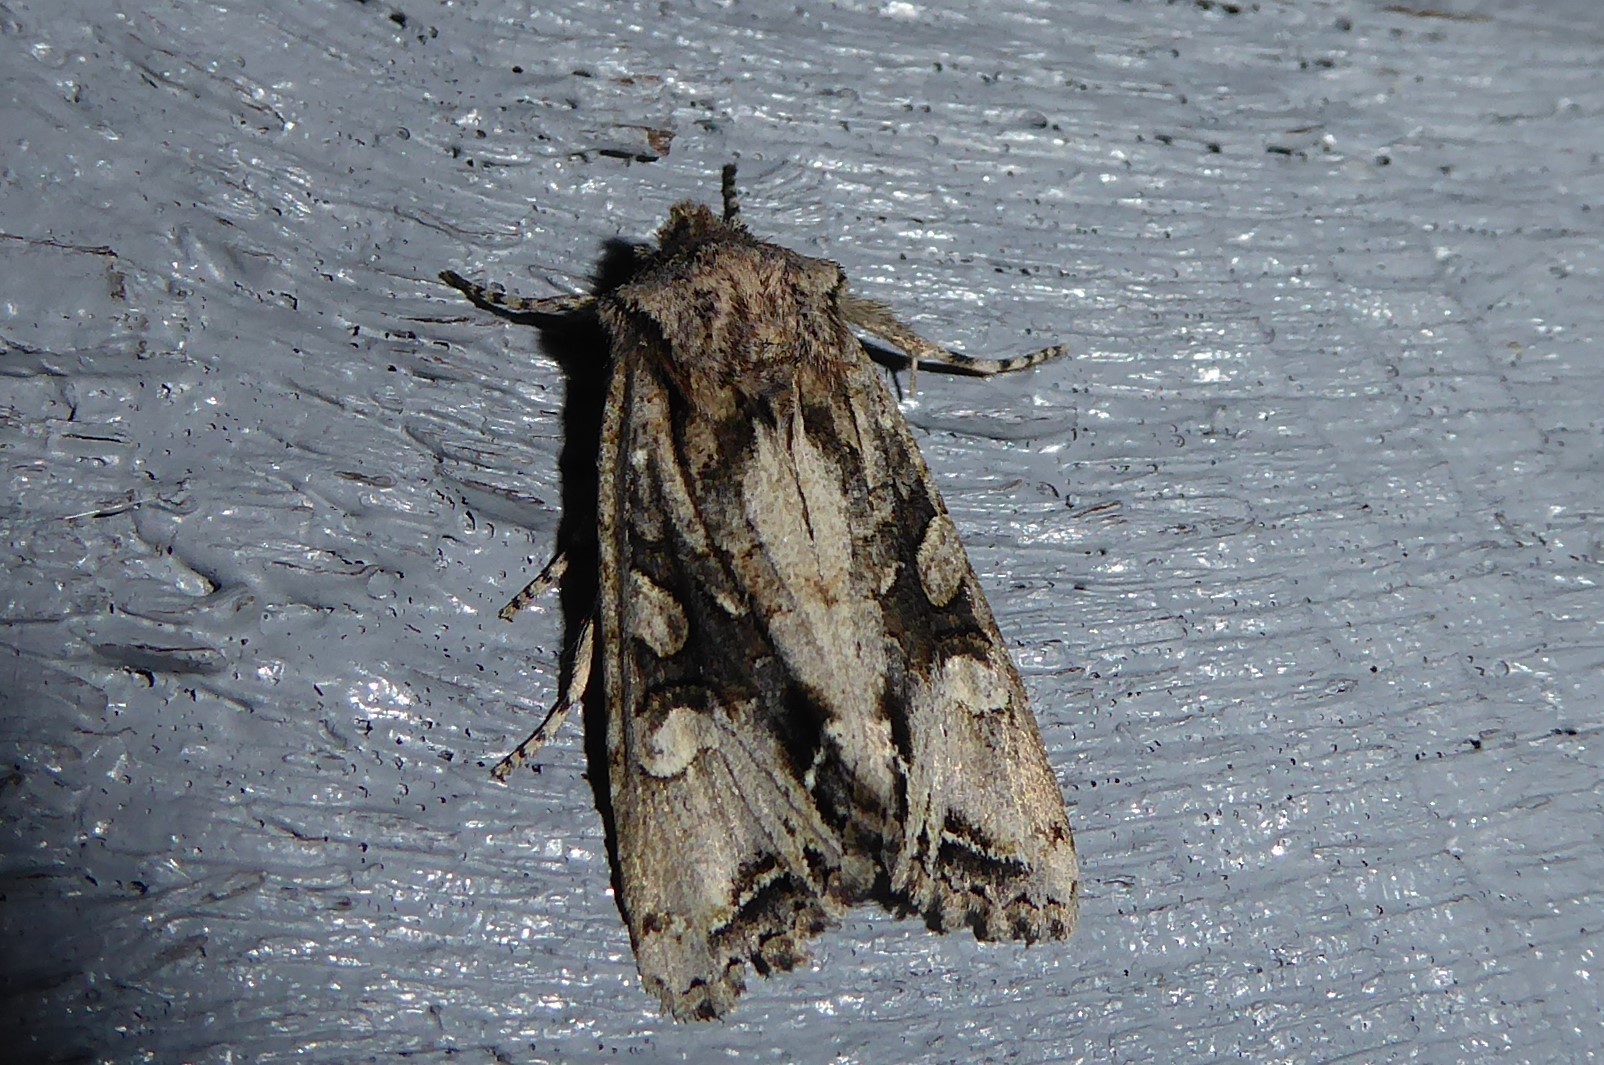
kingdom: Animalia
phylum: Arthropoda
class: Insecta
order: Lepidoptera
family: Noctuidae
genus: Ichneutica
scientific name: Ichneutica
